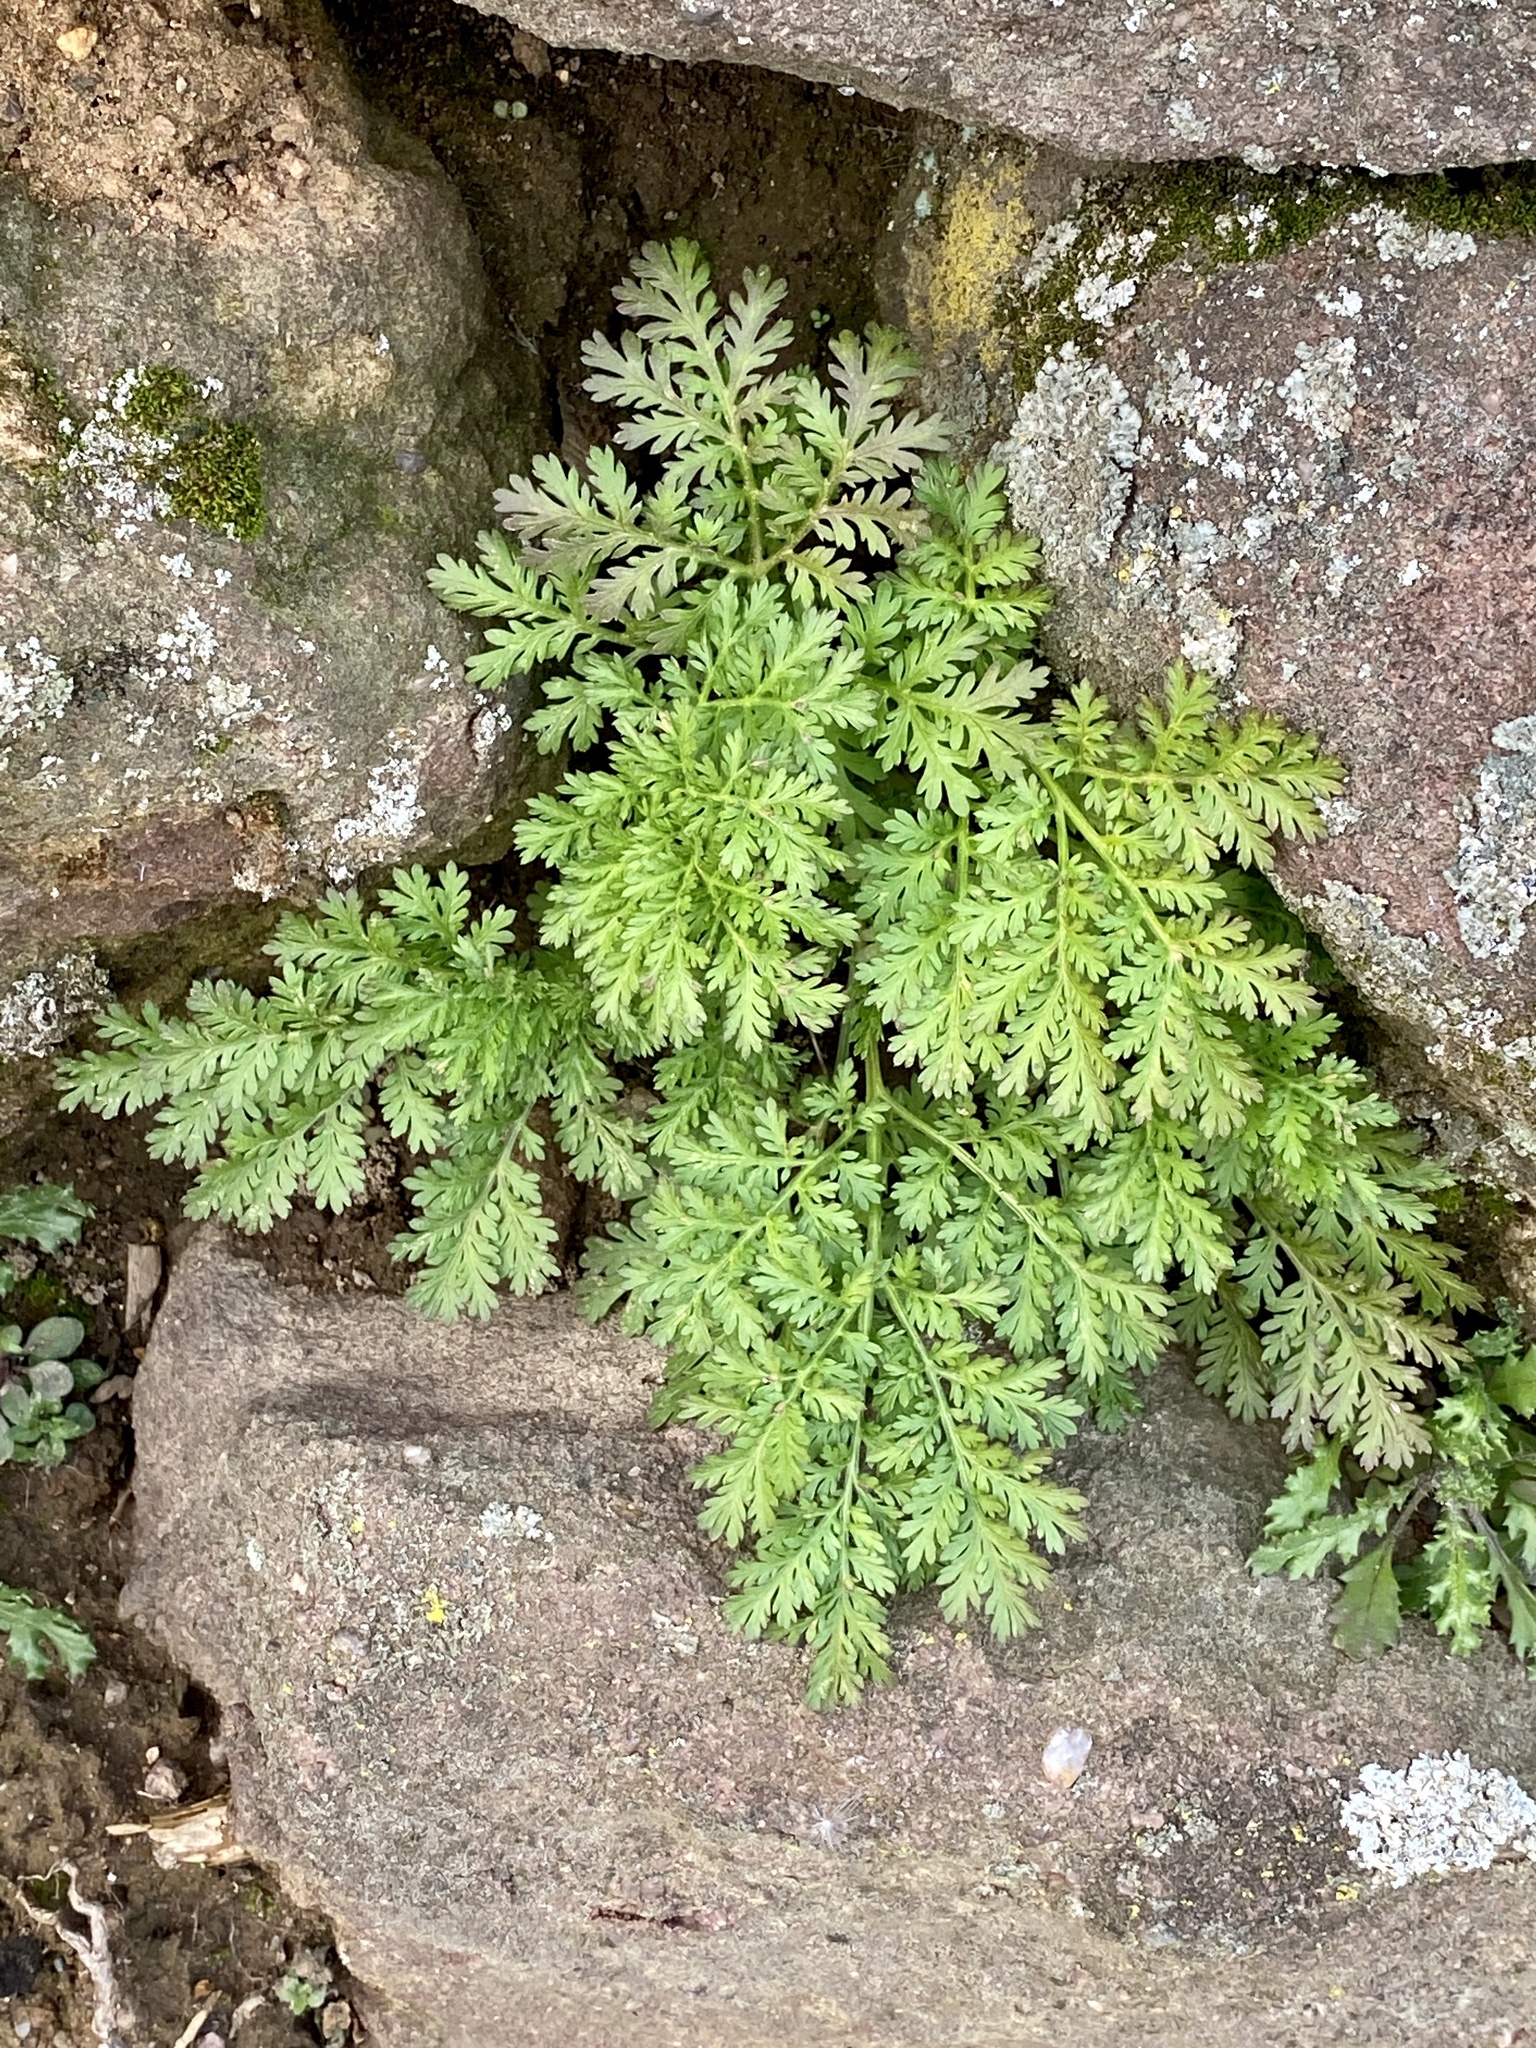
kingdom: Plantae
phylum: Tracheophyta
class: Magnoliopsida
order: Asterales
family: Asteraceae
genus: Artemisia
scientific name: Artemisia annua
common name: Sweet sagewort
